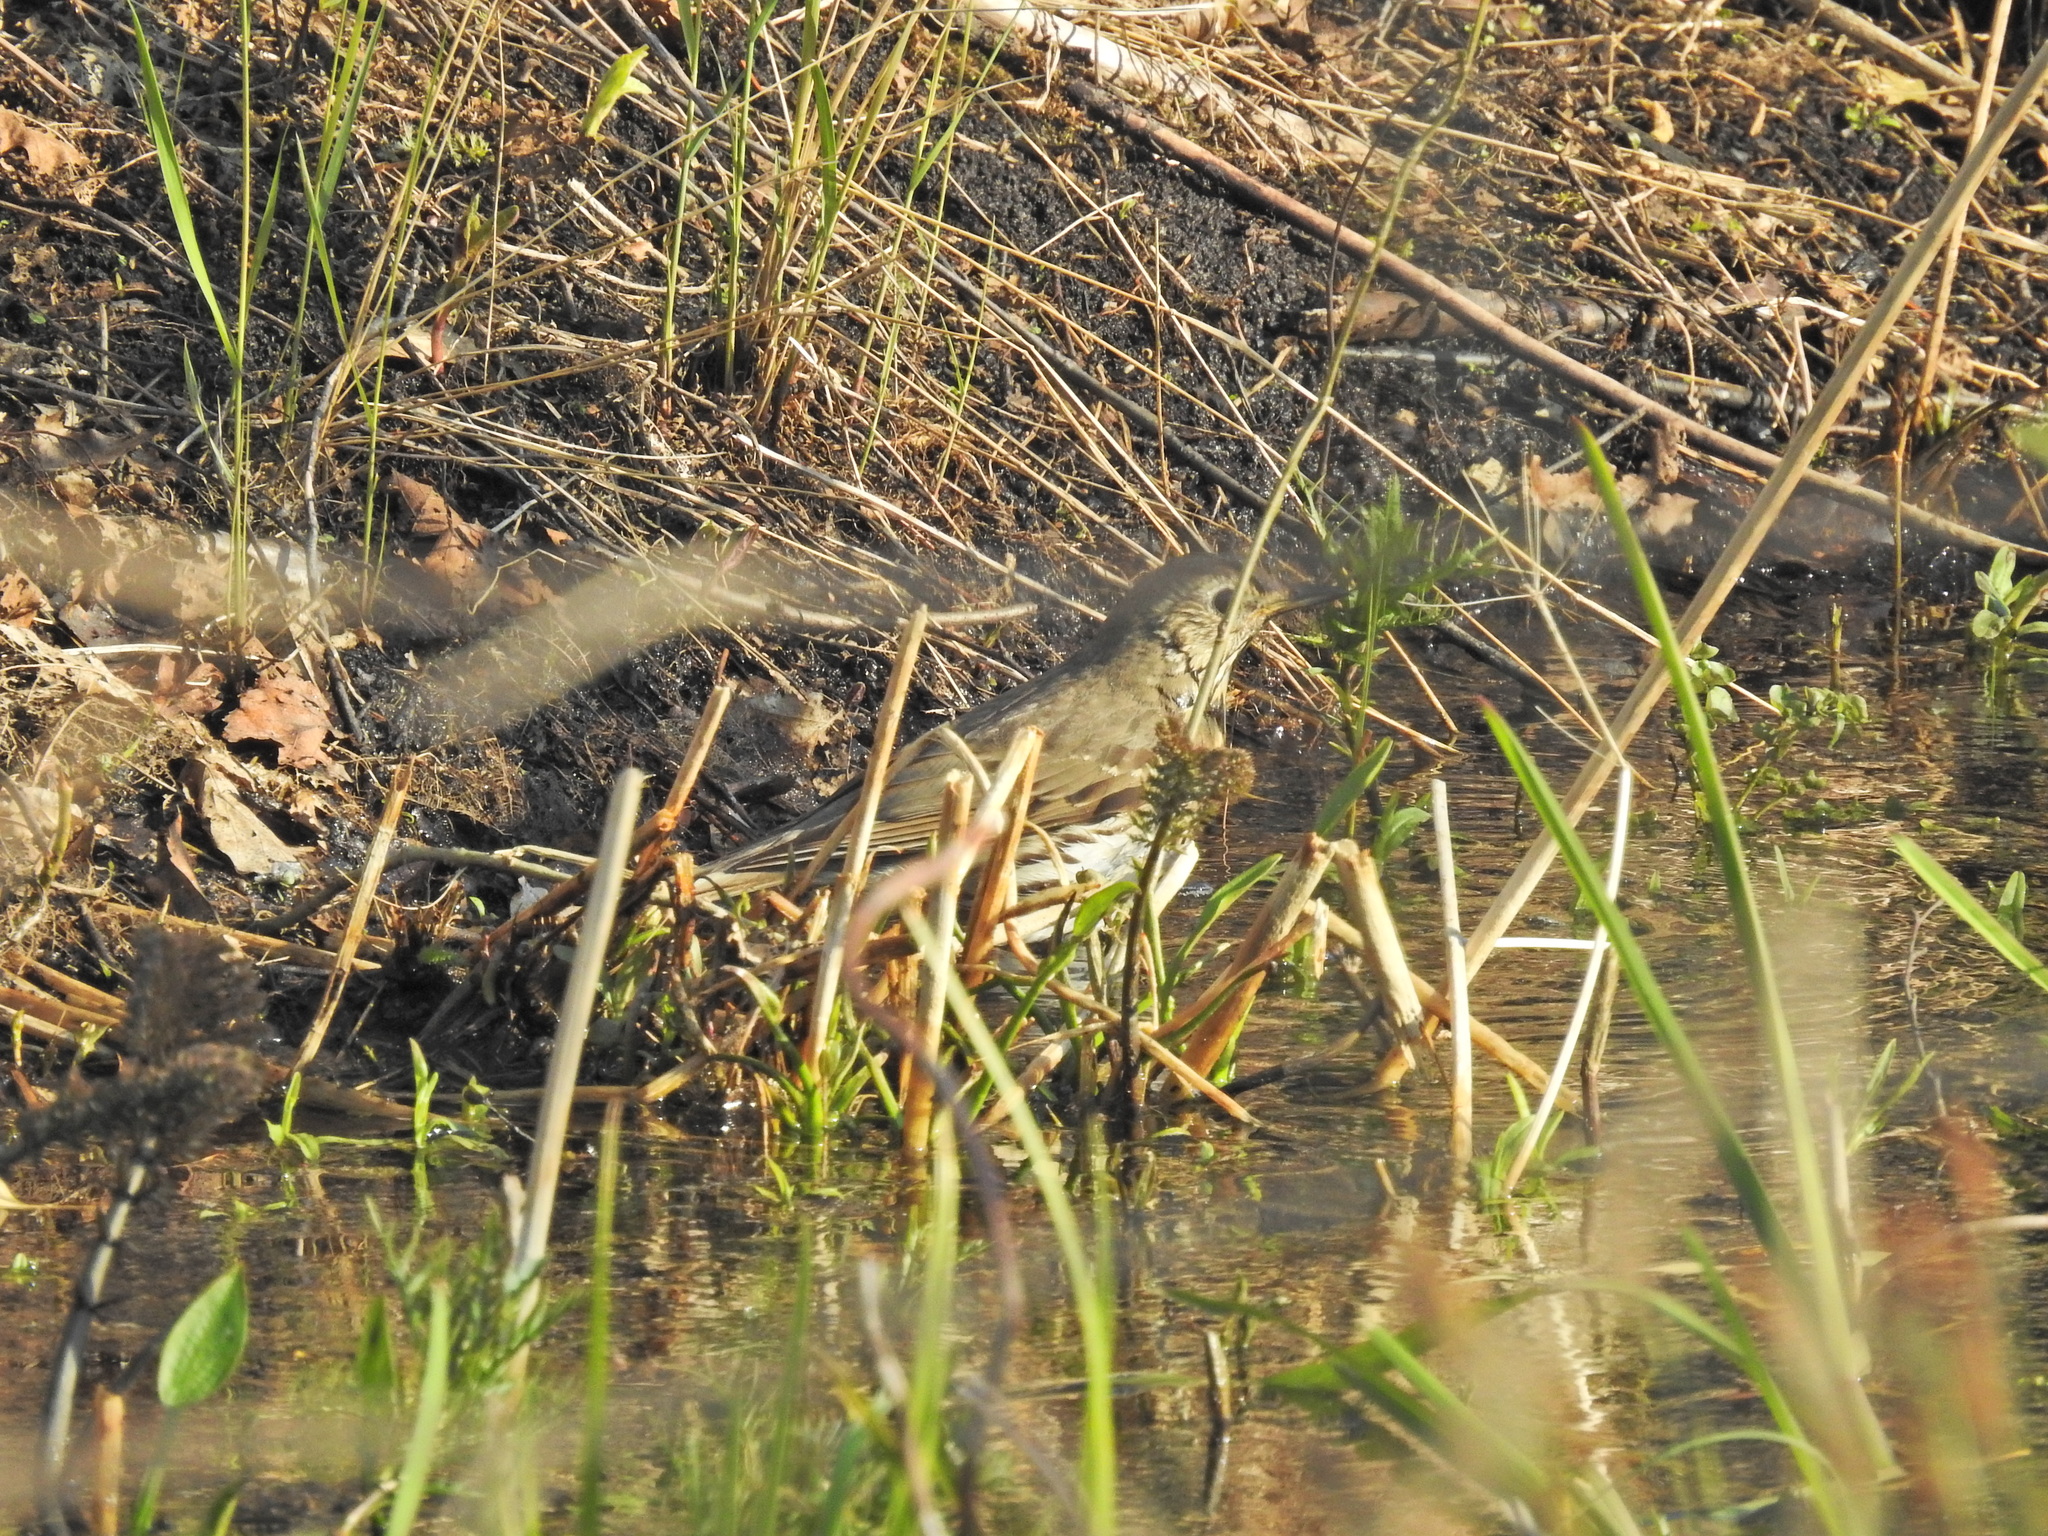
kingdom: Animalia
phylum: Chordata
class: Aves
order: Passeriformes
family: Turdidae
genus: Turdus
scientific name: Turdus philomelos
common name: Song thrush
